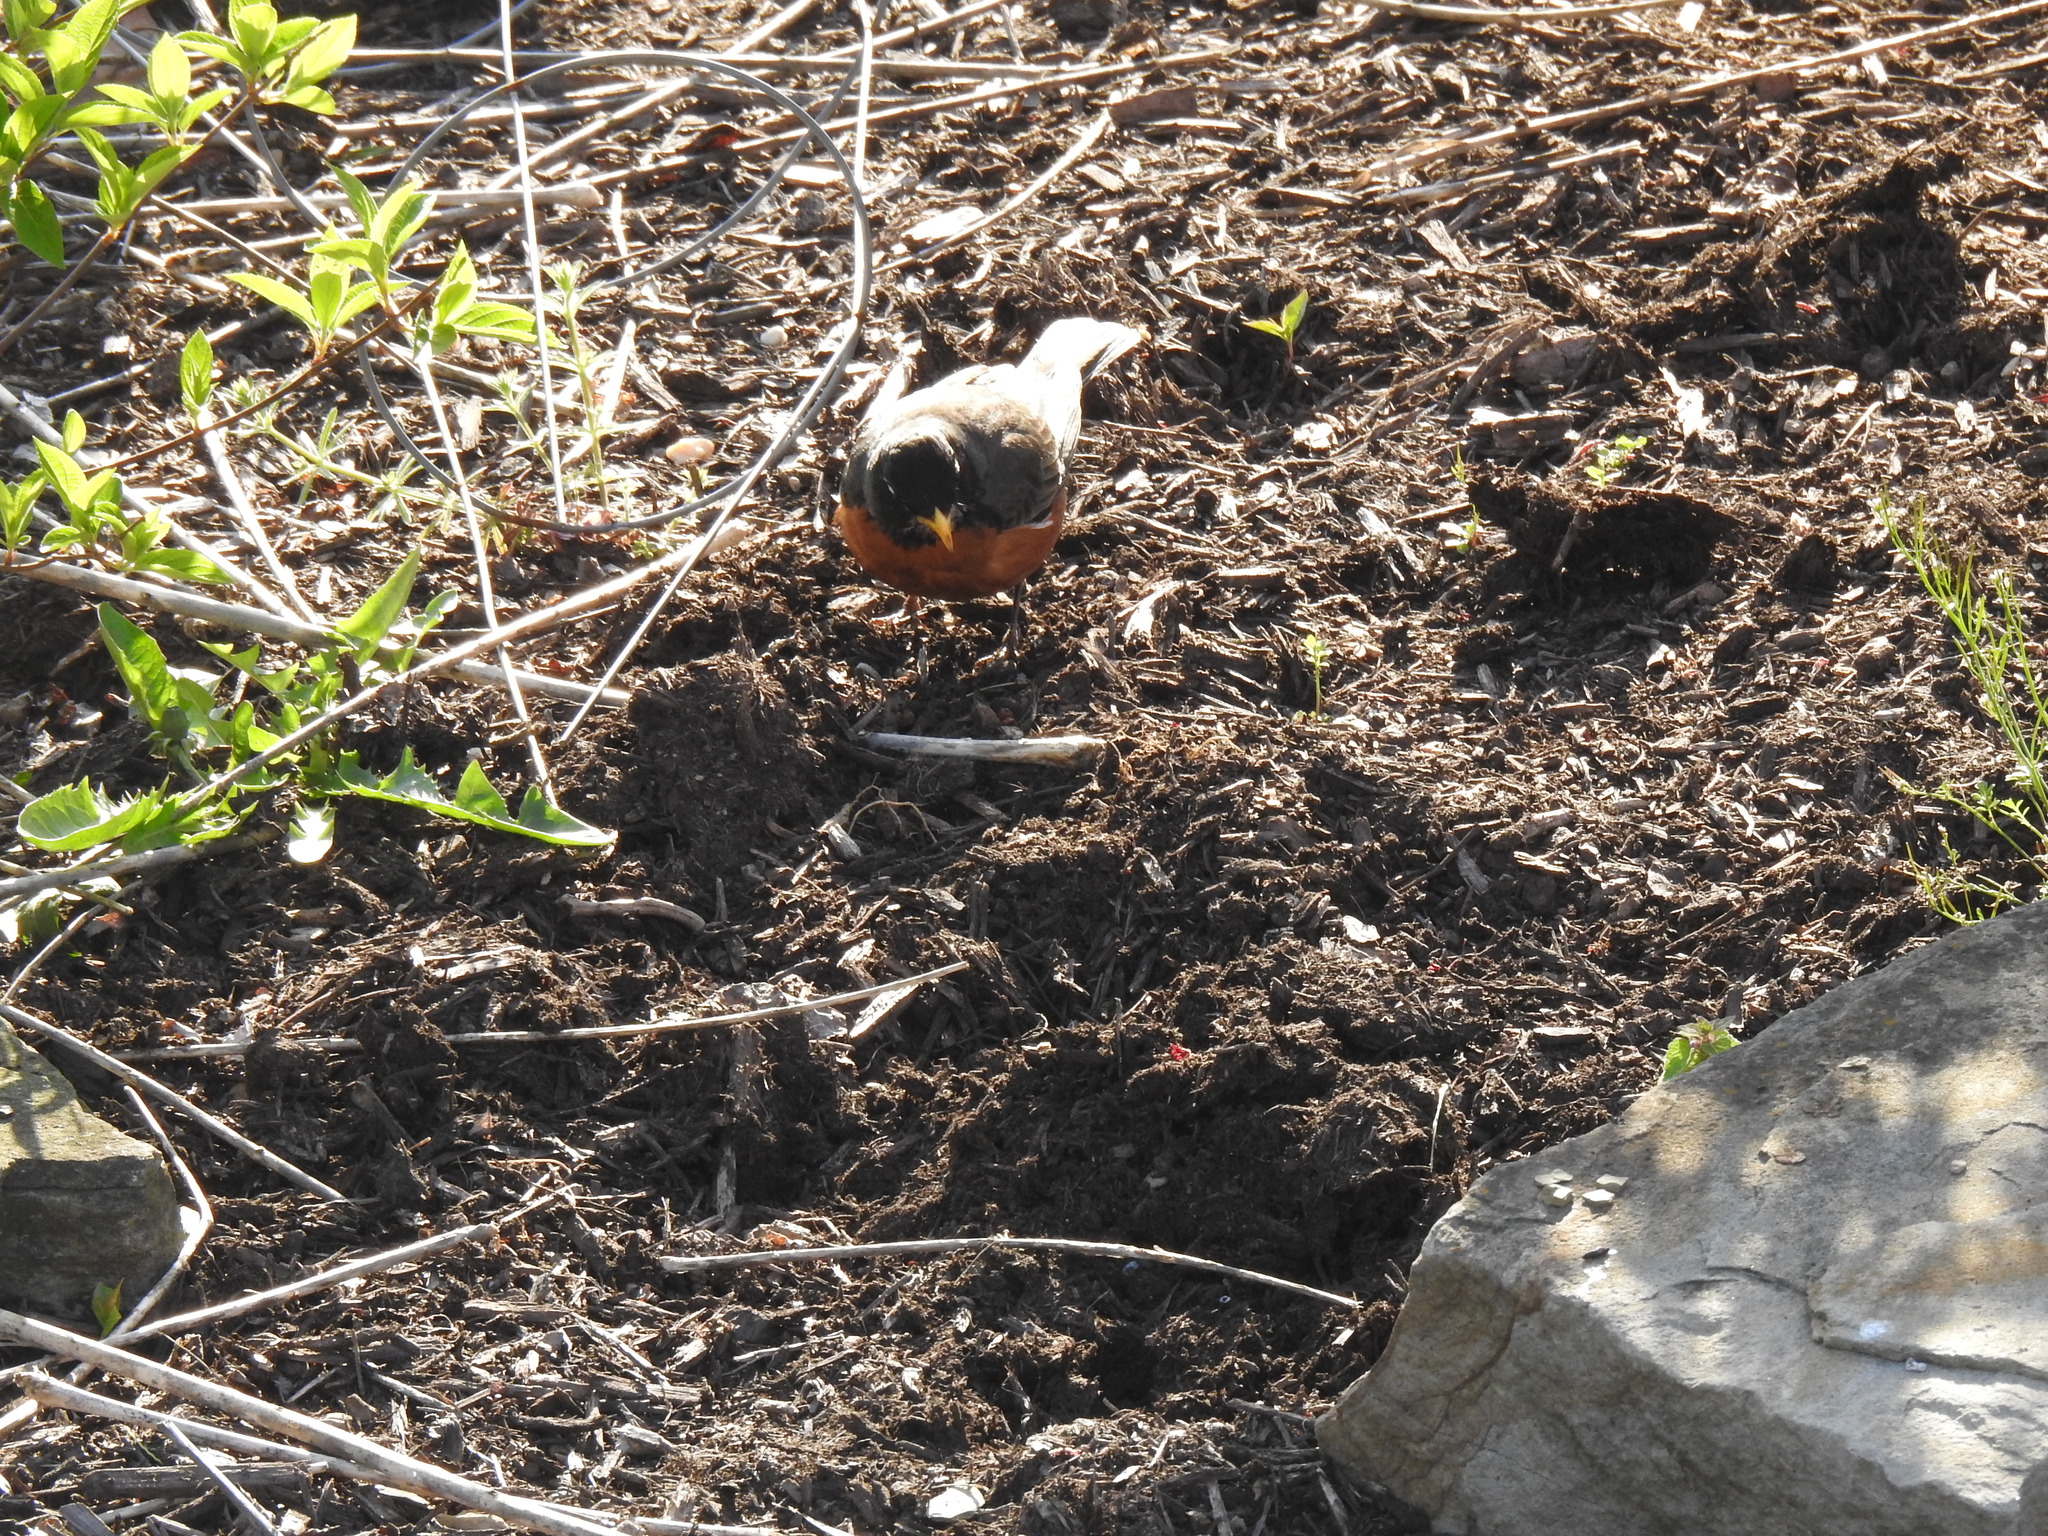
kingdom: Animalia
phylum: Chordata
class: Aves
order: Passeriformes
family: Turdidae
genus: Turdus
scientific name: Turdus migratorius
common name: American robin
